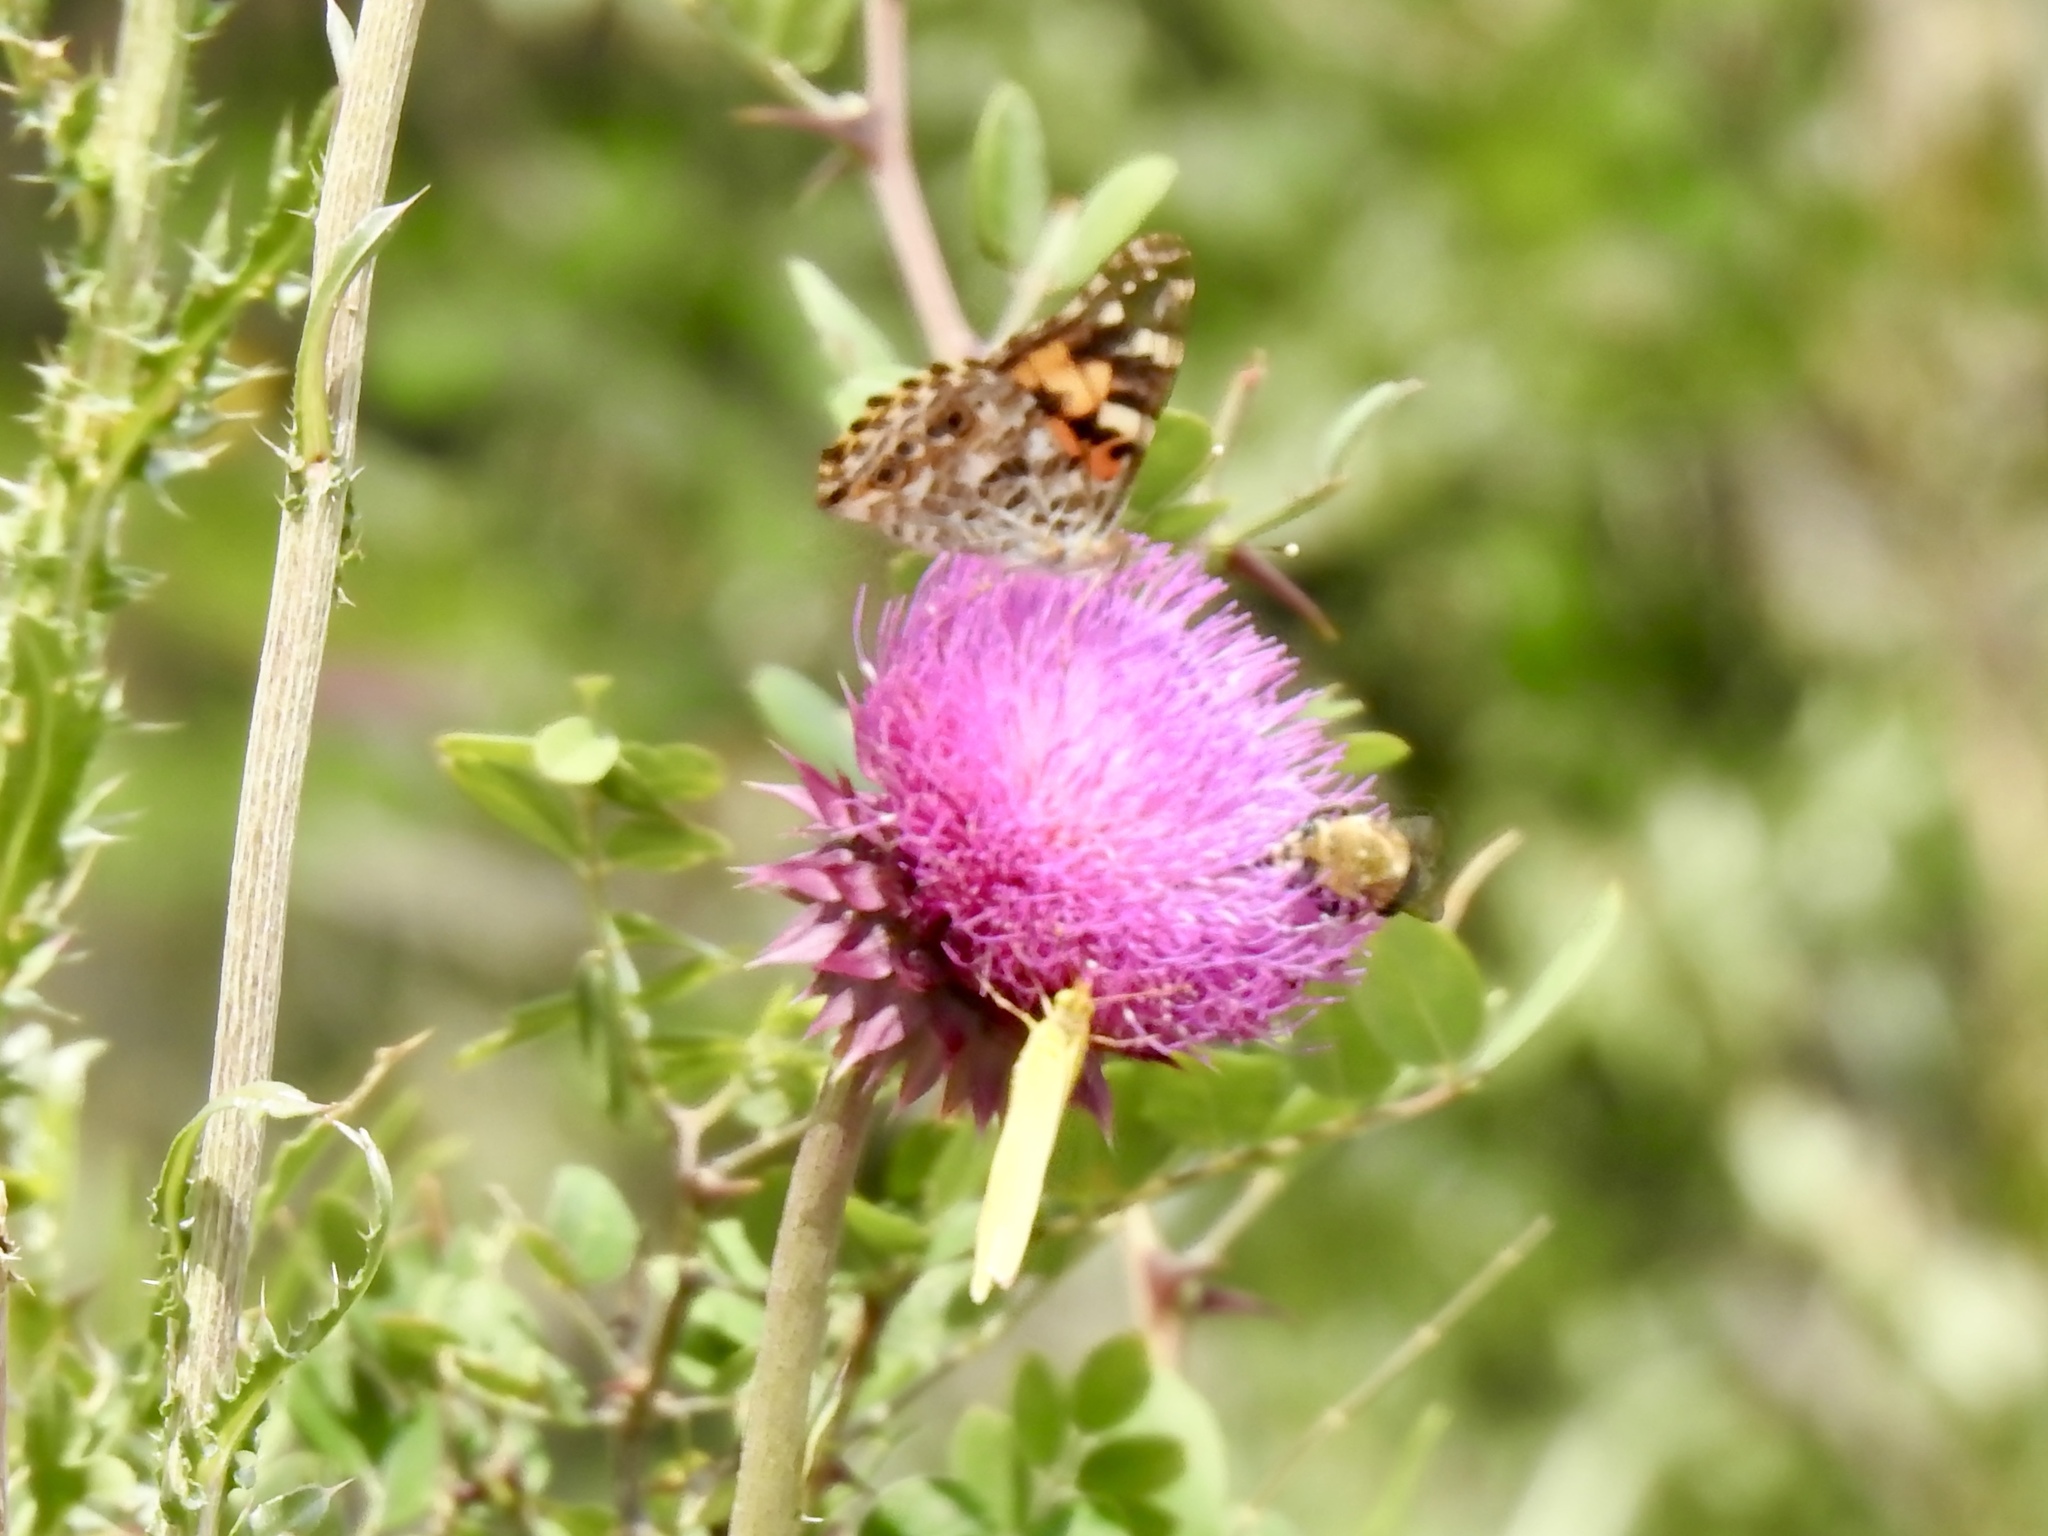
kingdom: Animalia
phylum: Arthropoda
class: Insecta
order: Lepidoptera
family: Nymphalidae
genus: Vanessa
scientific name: Vanessa cardui
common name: Painted lady
